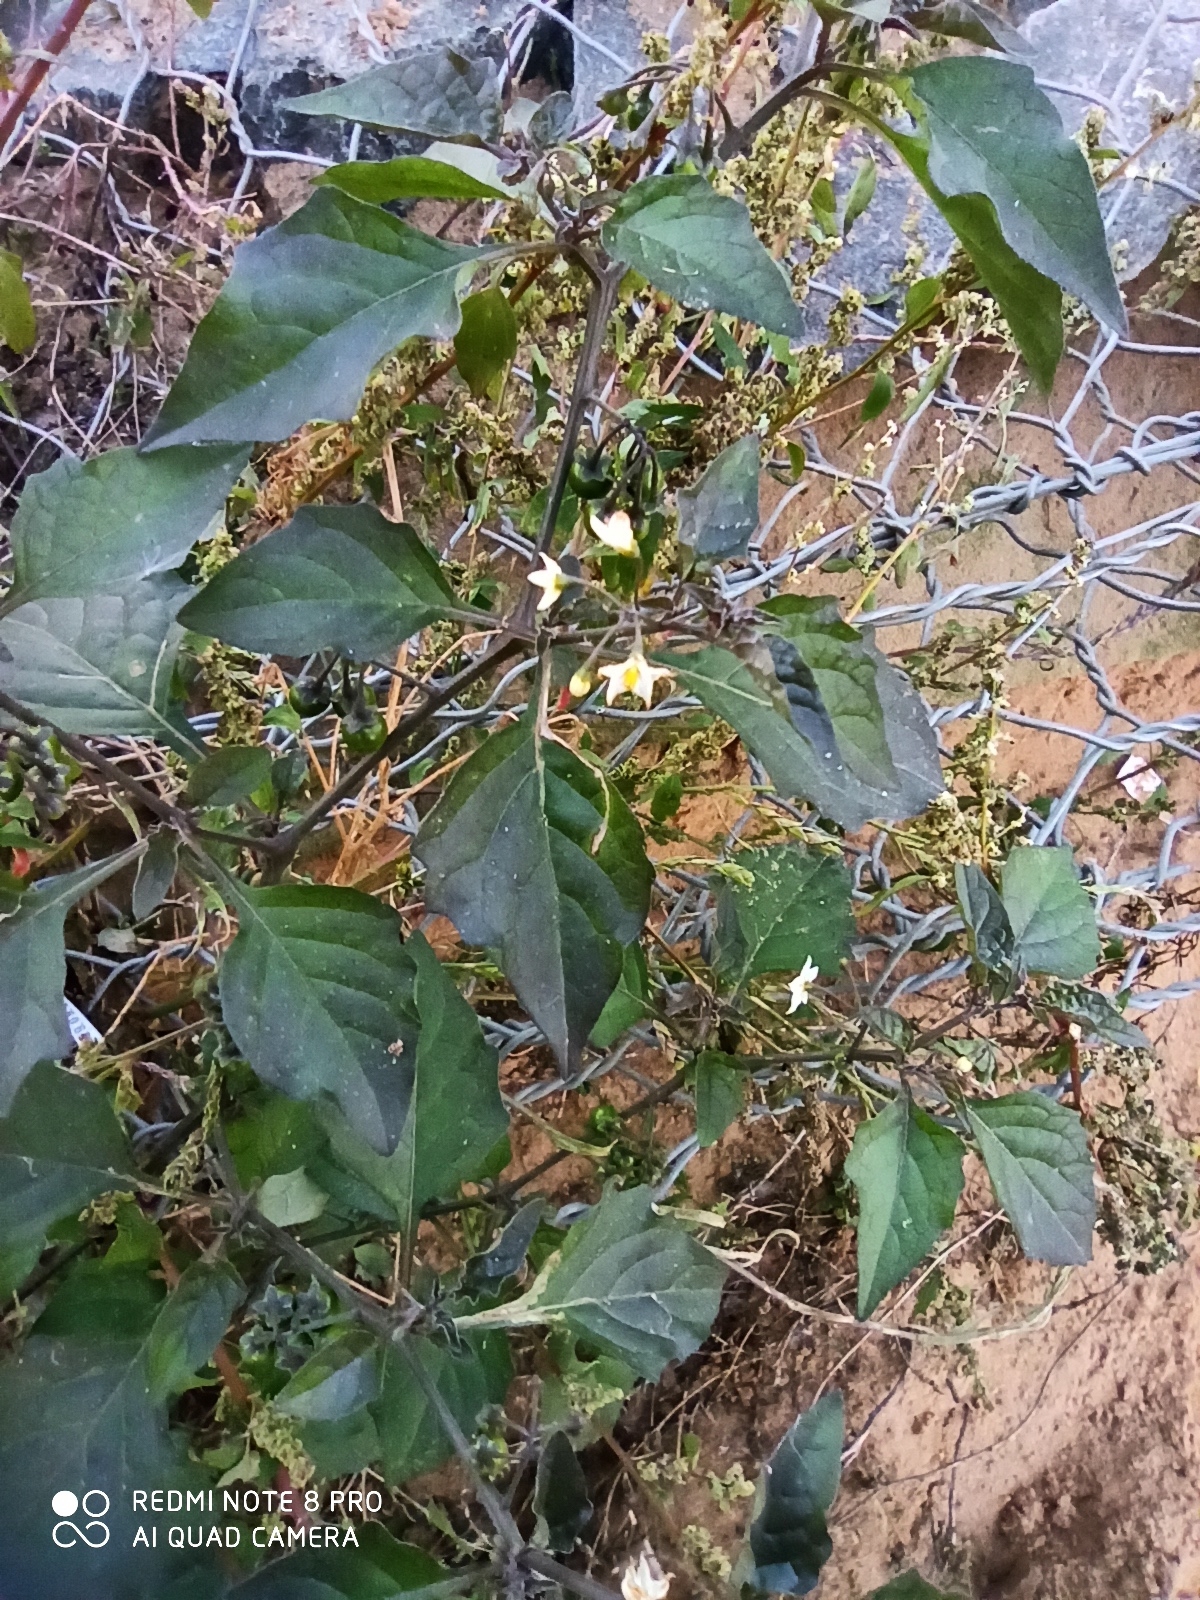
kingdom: Plantae
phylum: Tracheophyta
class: Magnoliopsida
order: Solanales
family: Solanaceae
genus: Solanum
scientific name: Solanum nigrum
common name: Black nightshade
